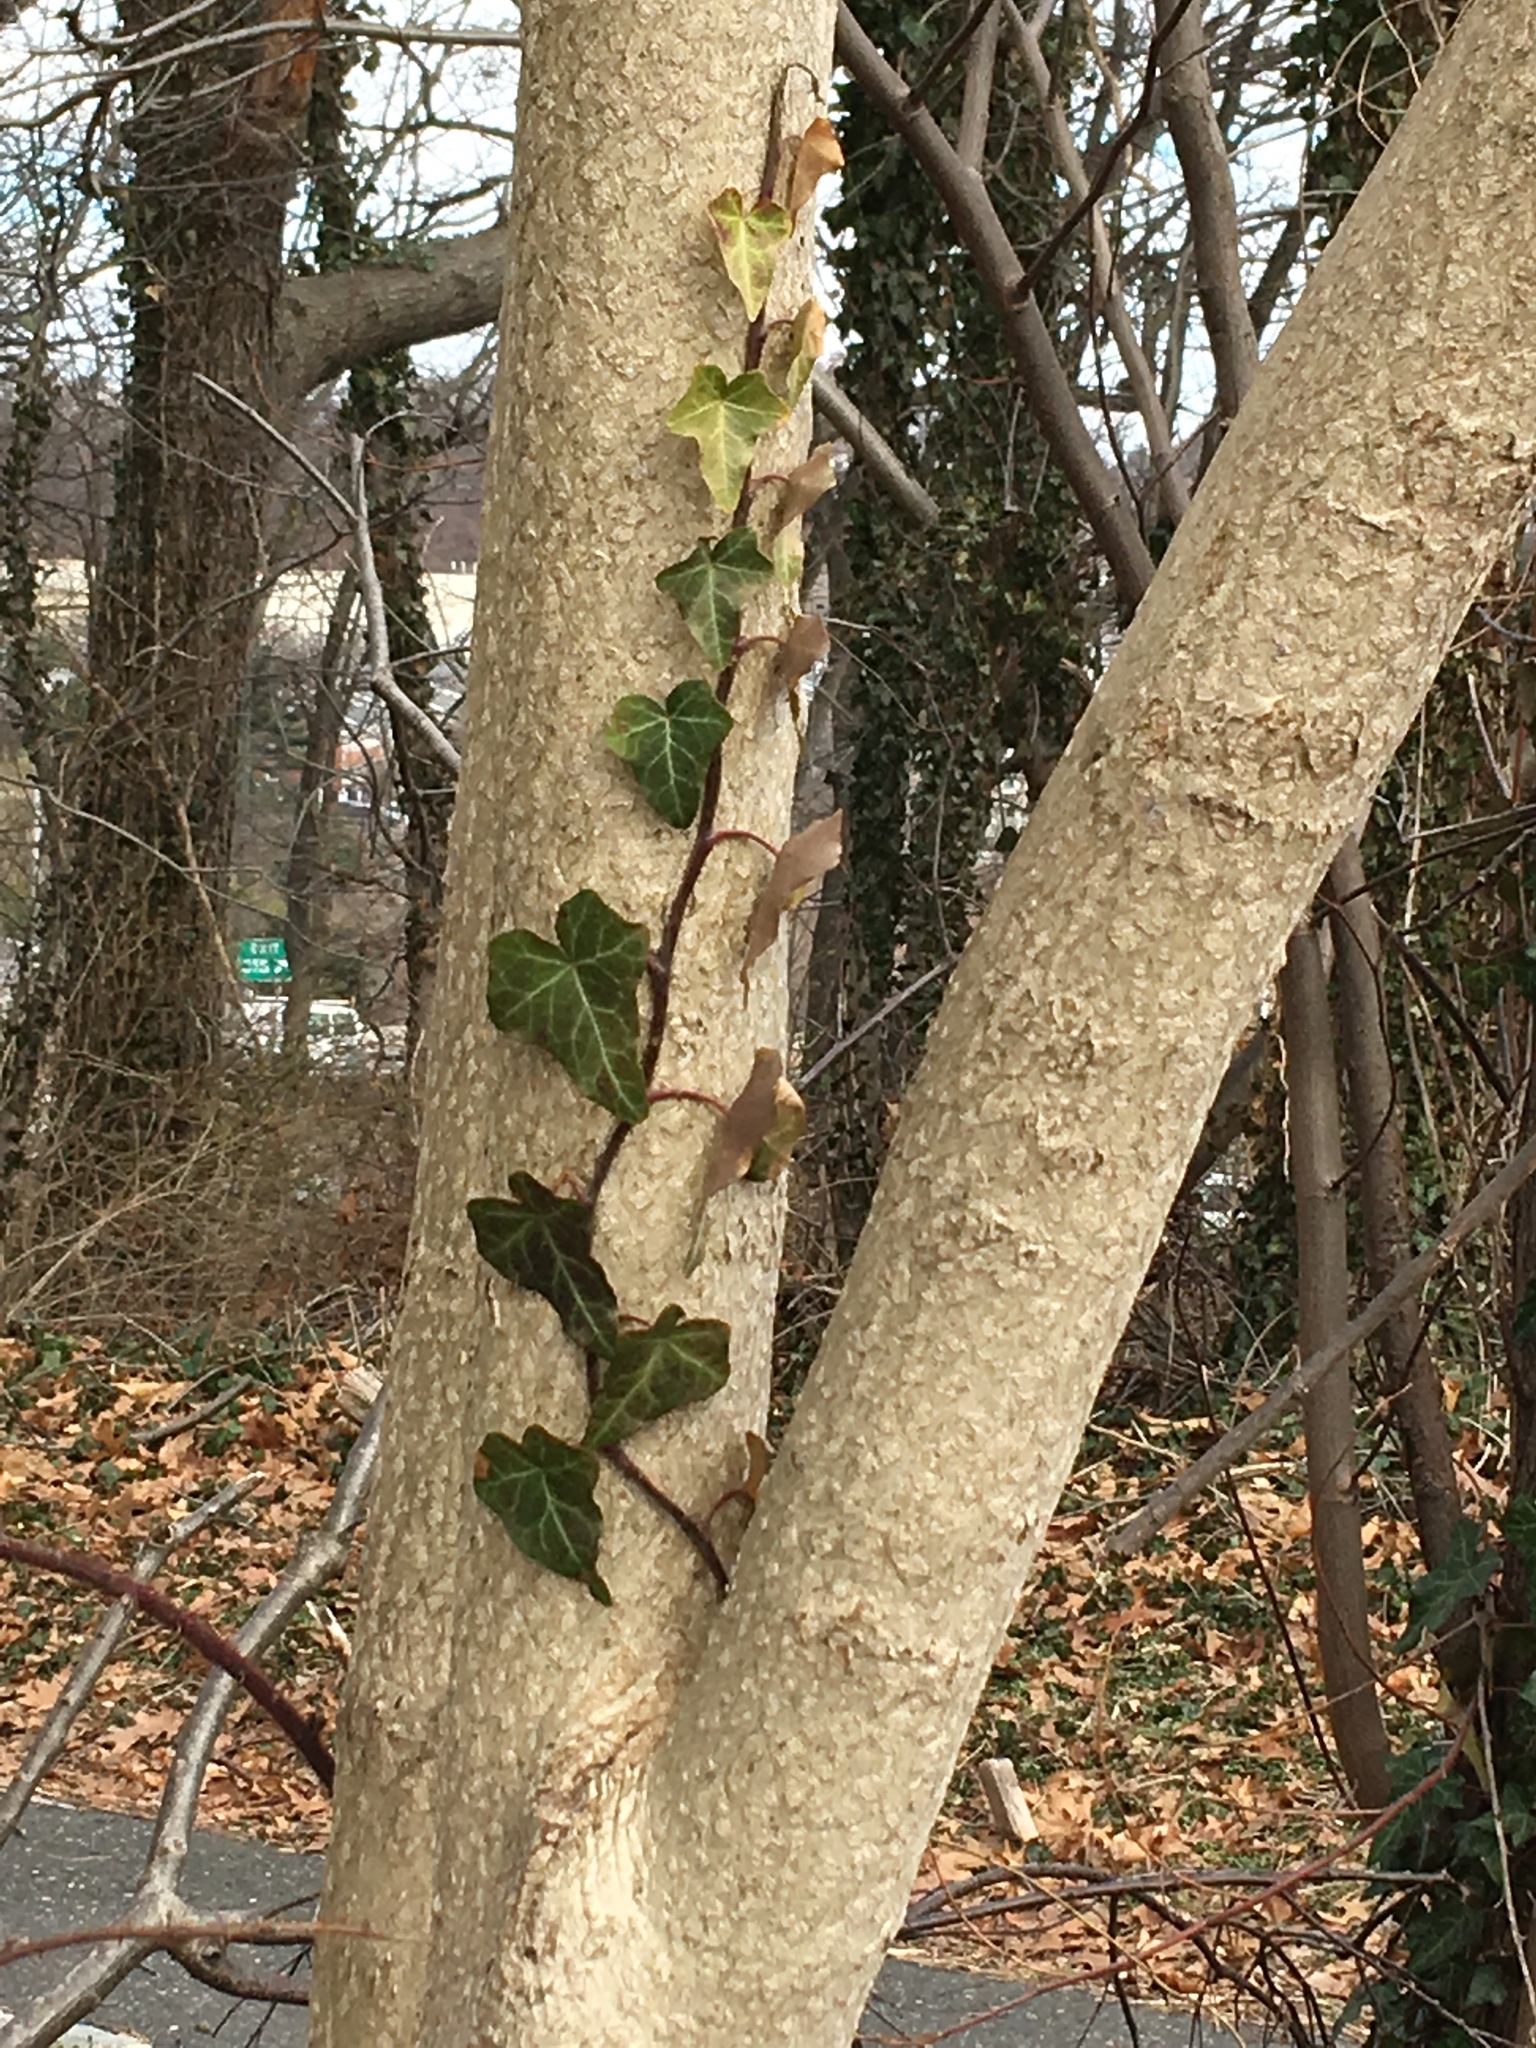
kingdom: Plantae
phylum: Tracheophyta
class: Magnoliopsida
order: Apiales
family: Araliaceae
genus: Hedera
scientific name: Hedera helix
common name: Ivy
